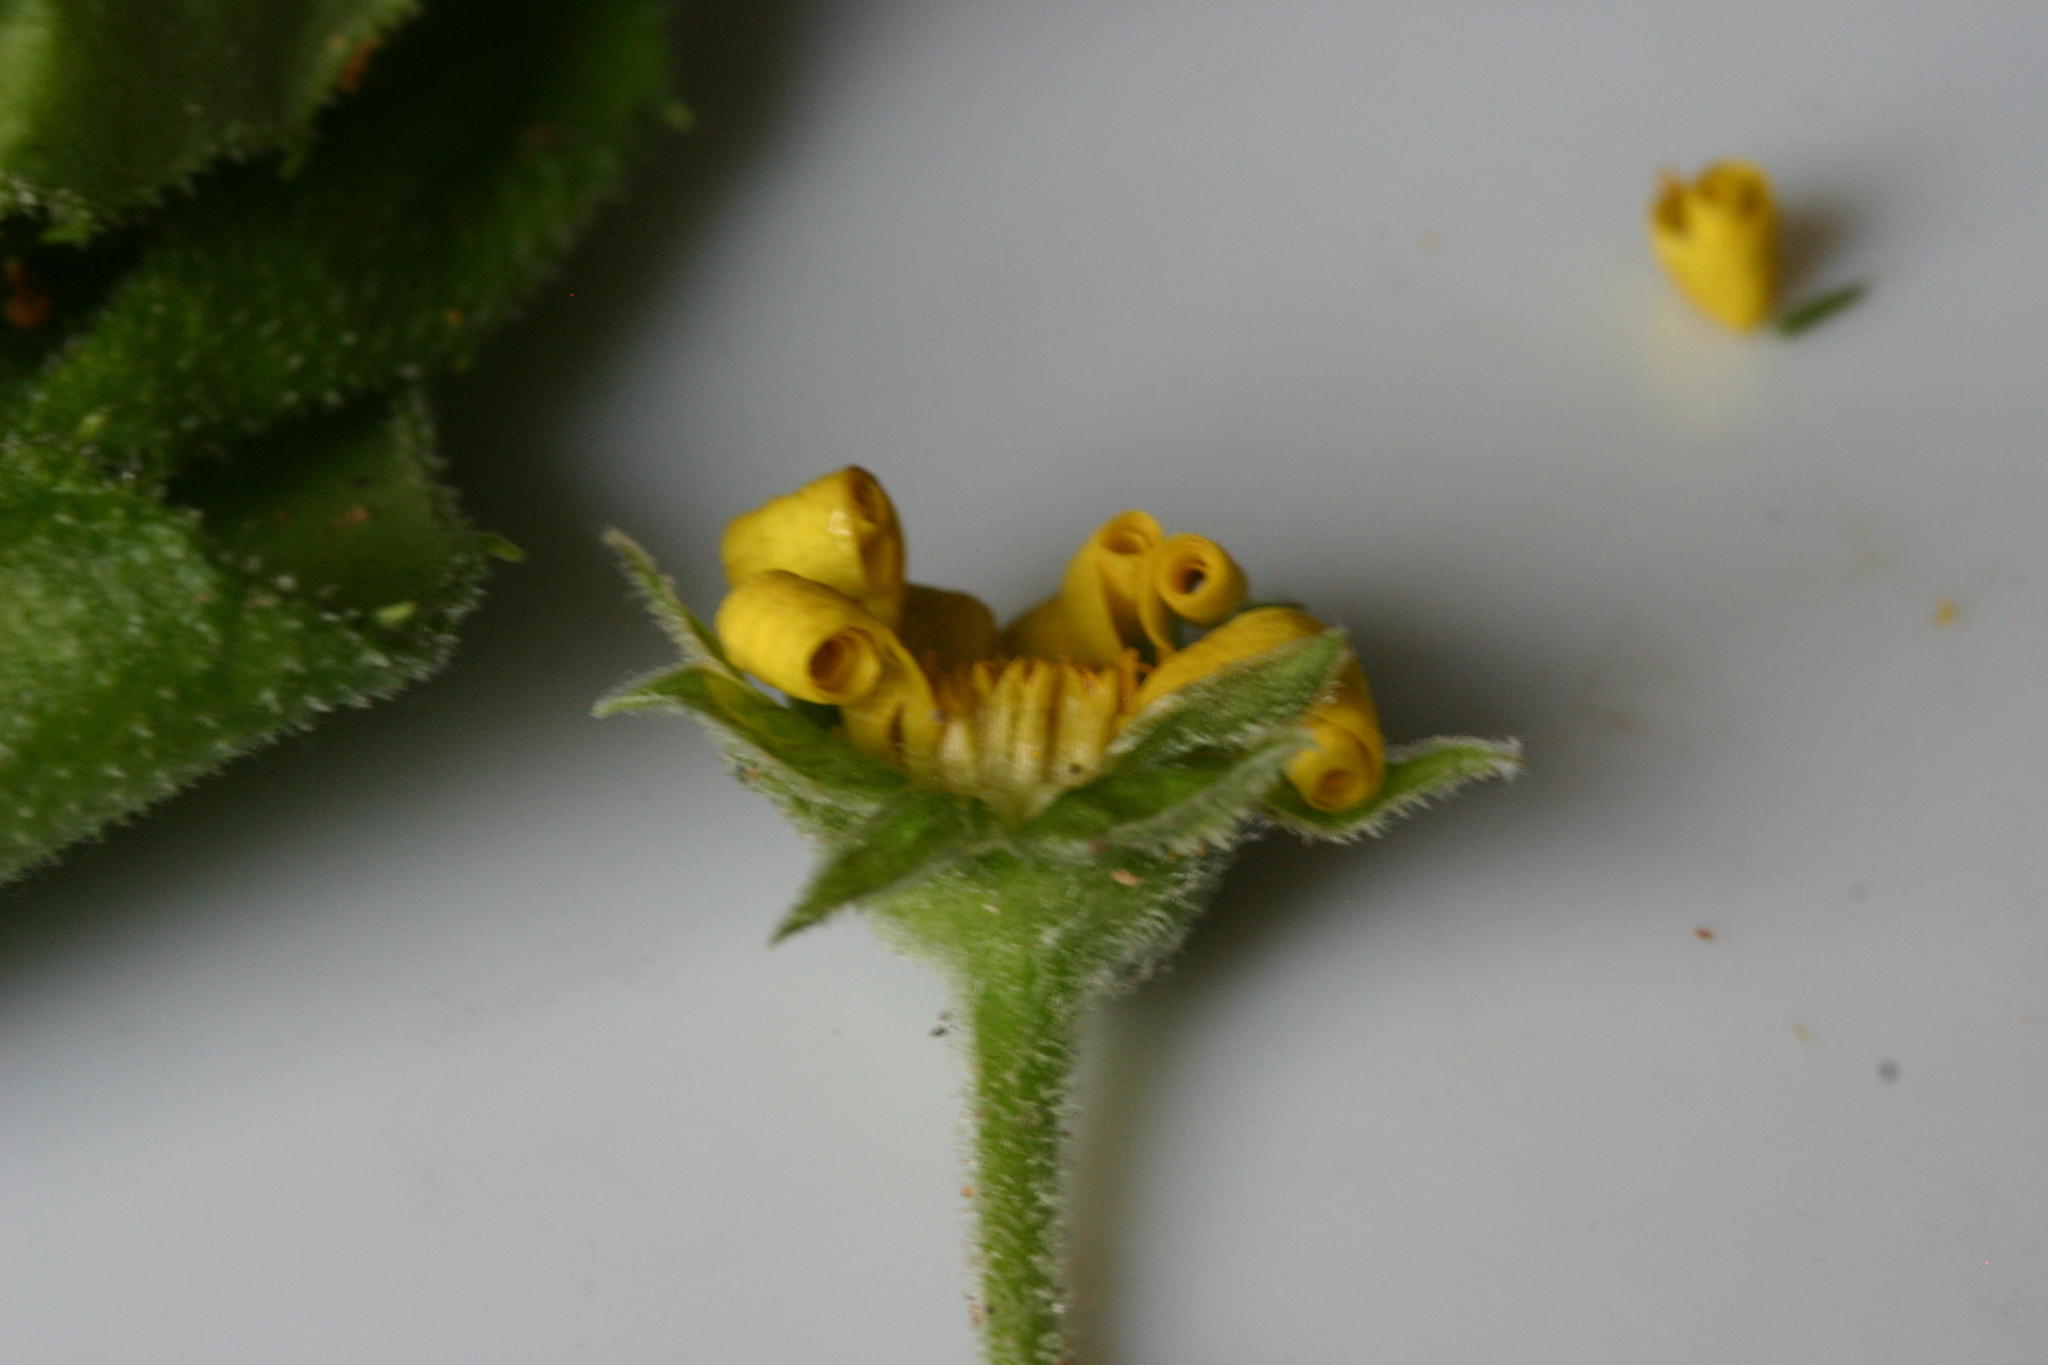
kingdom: Plantae
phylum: Tracheophyta
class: Magnoliopsida
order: Asterales
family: Asteraceae
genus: Osteospermum
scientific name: Osteospermum grandidentatum
